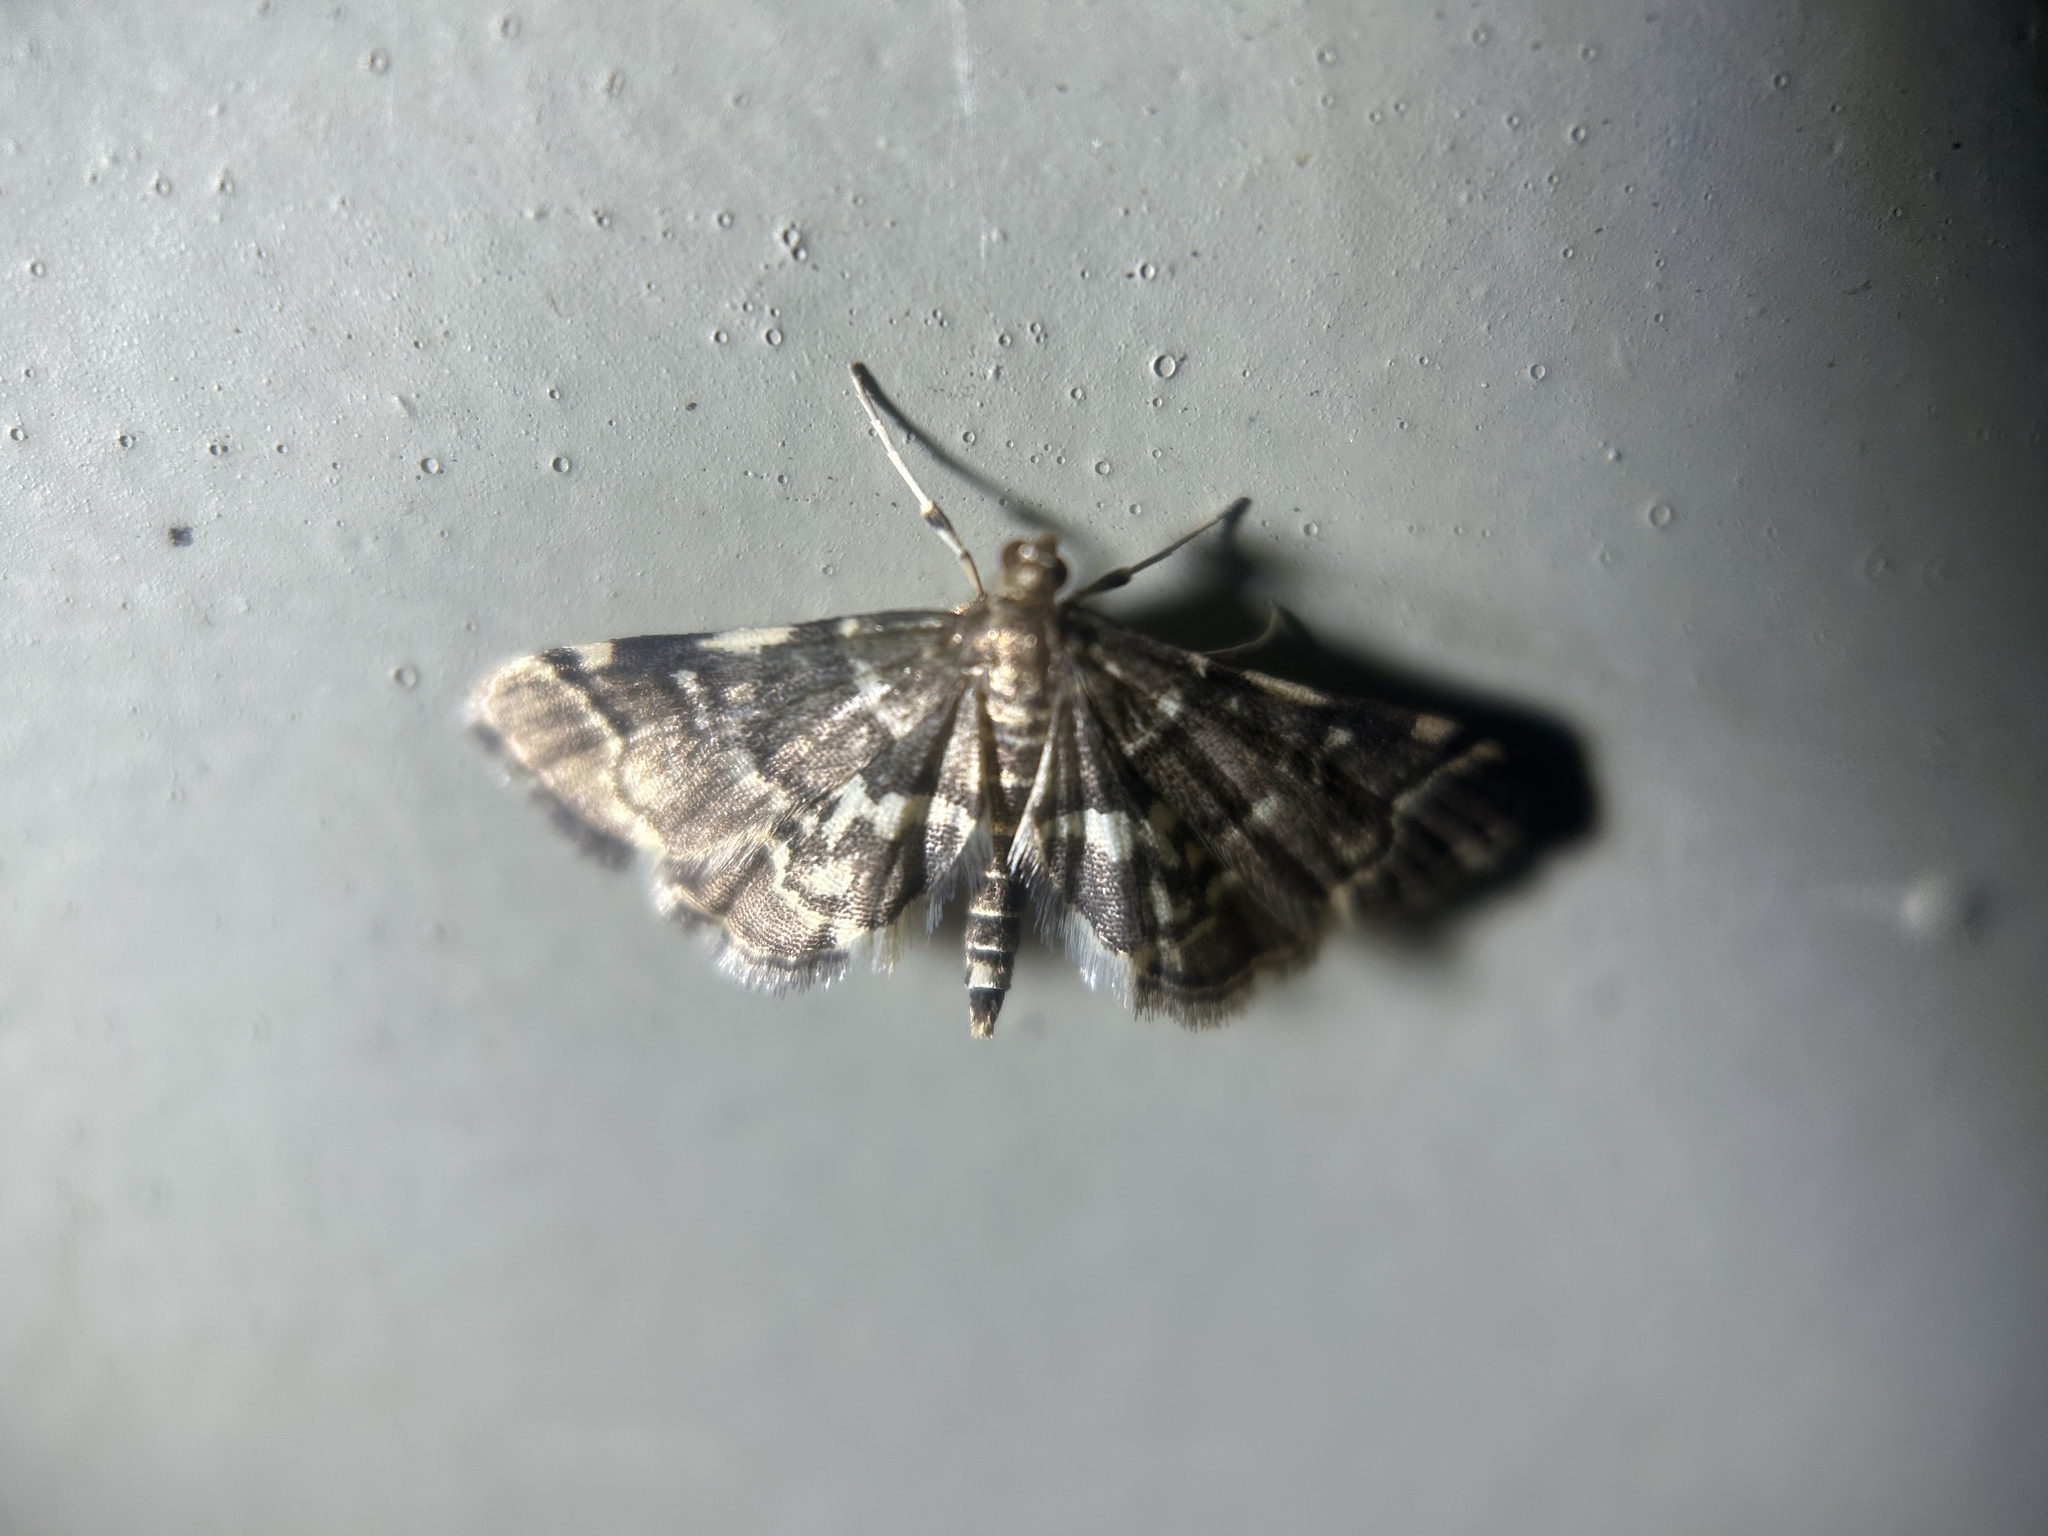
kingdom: Animalia
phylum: Arthropoda
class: Insecta
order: Lepidoptera
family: Crambidae
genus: Anageshna
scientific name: Anageshna primordialis
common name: Yellow-spotted webworm moth
